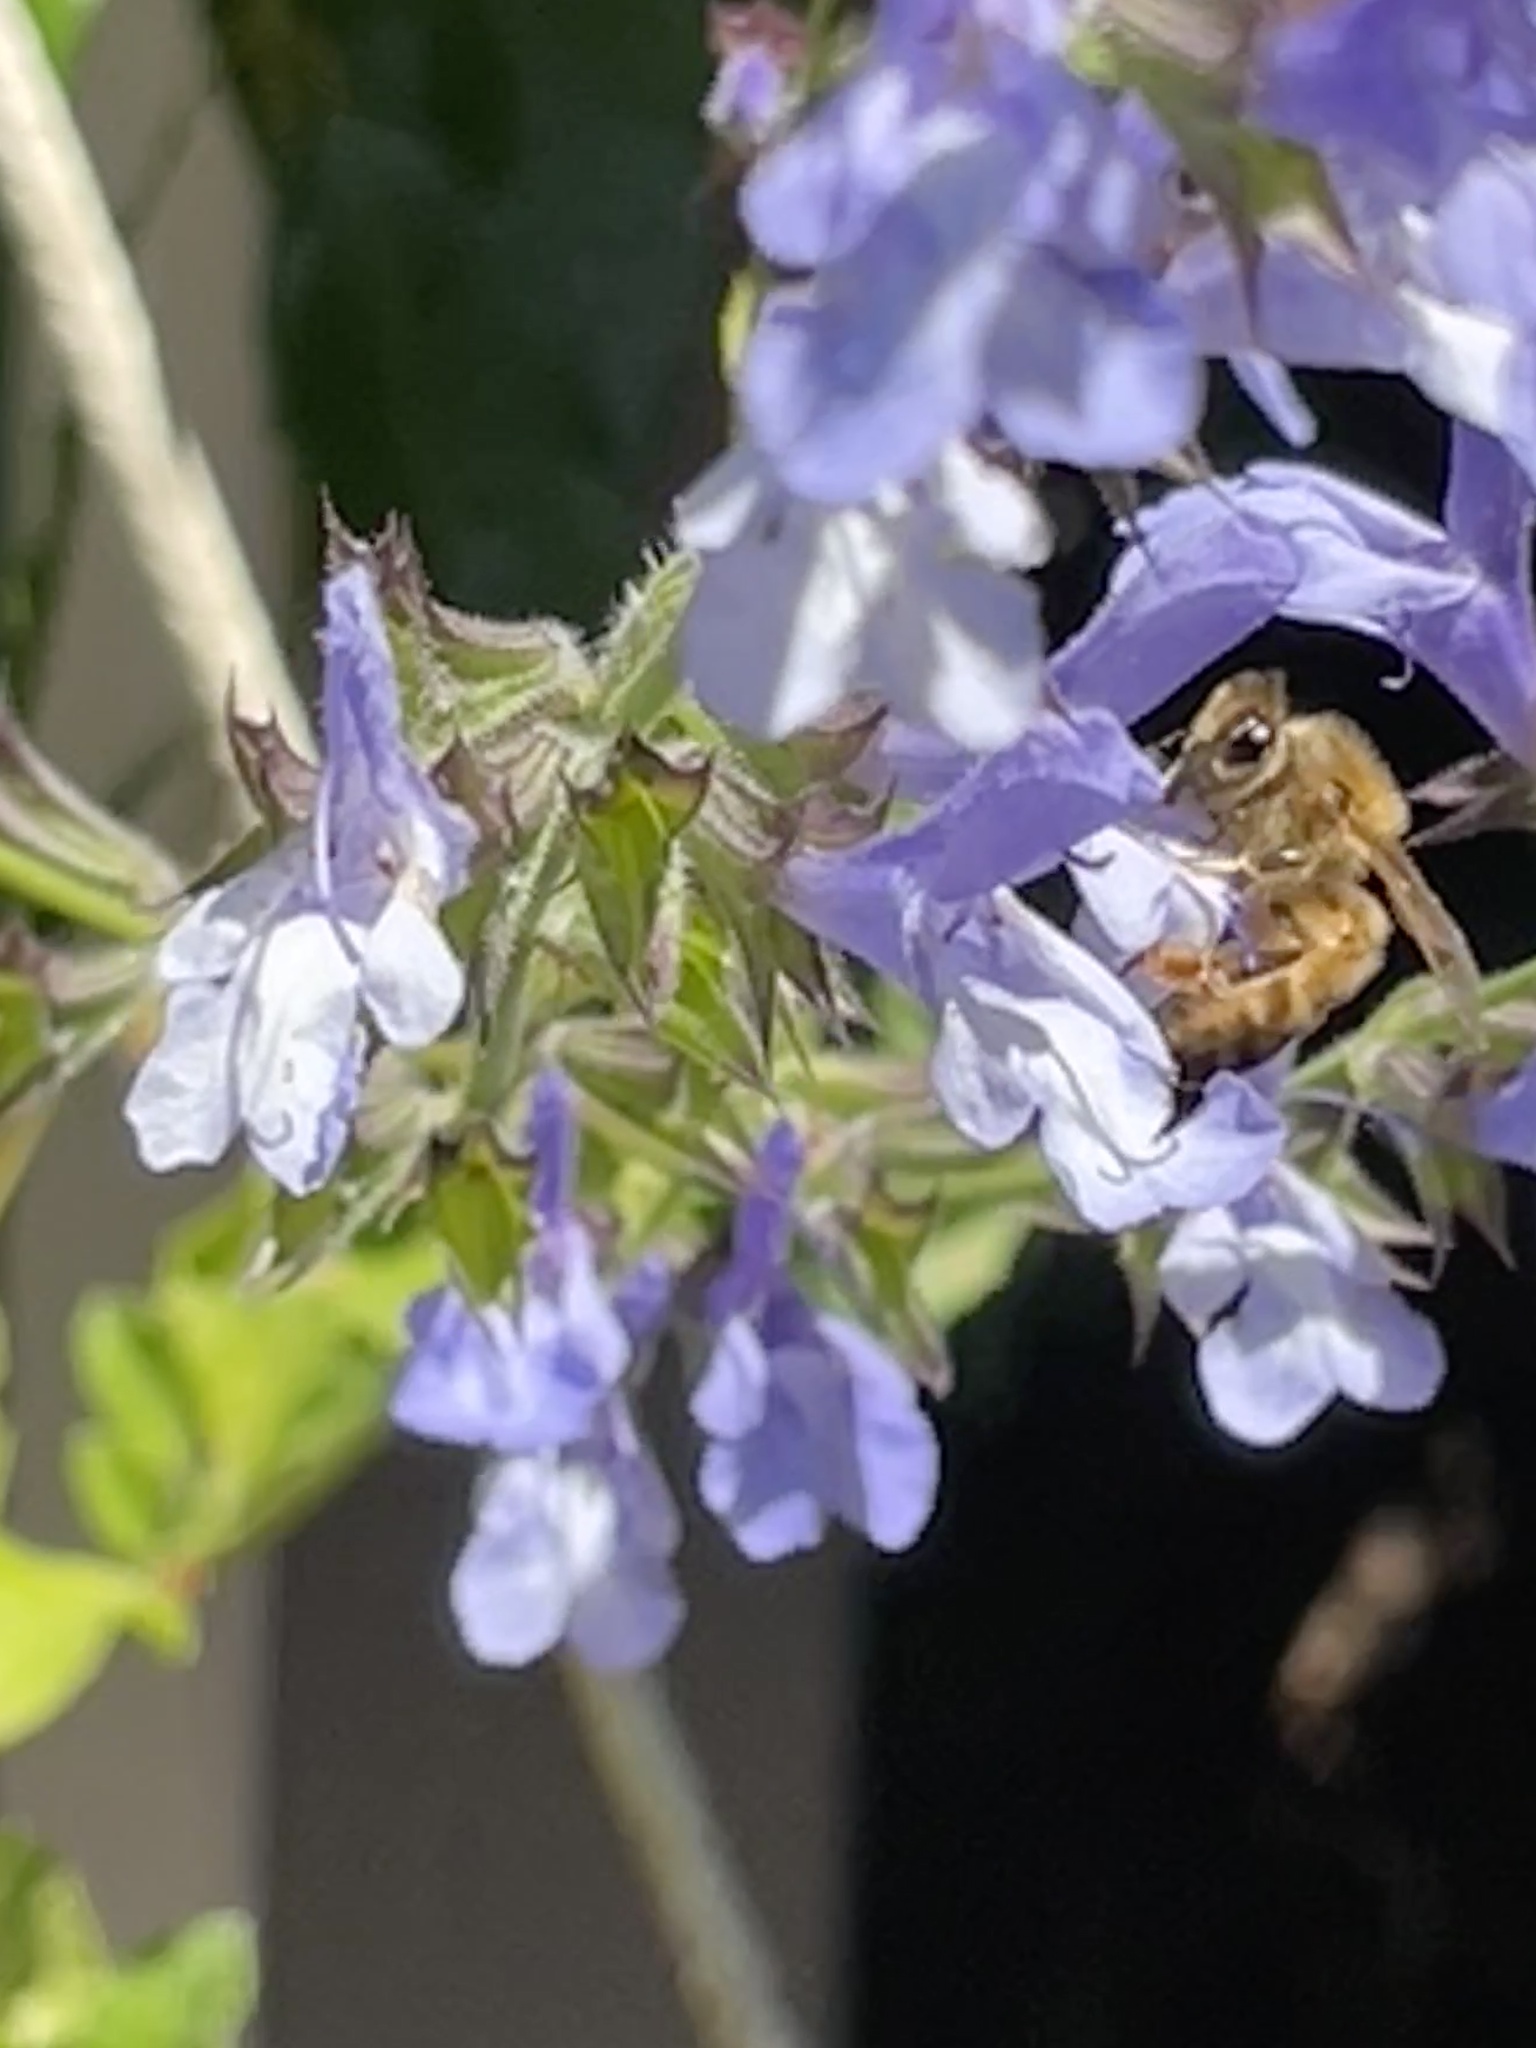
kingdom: Animalia
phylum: Arthropoda
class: Insecta
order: Hymenoptera
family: Apidae
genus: Apis
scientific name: Apis mellifera
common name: Honey bee
